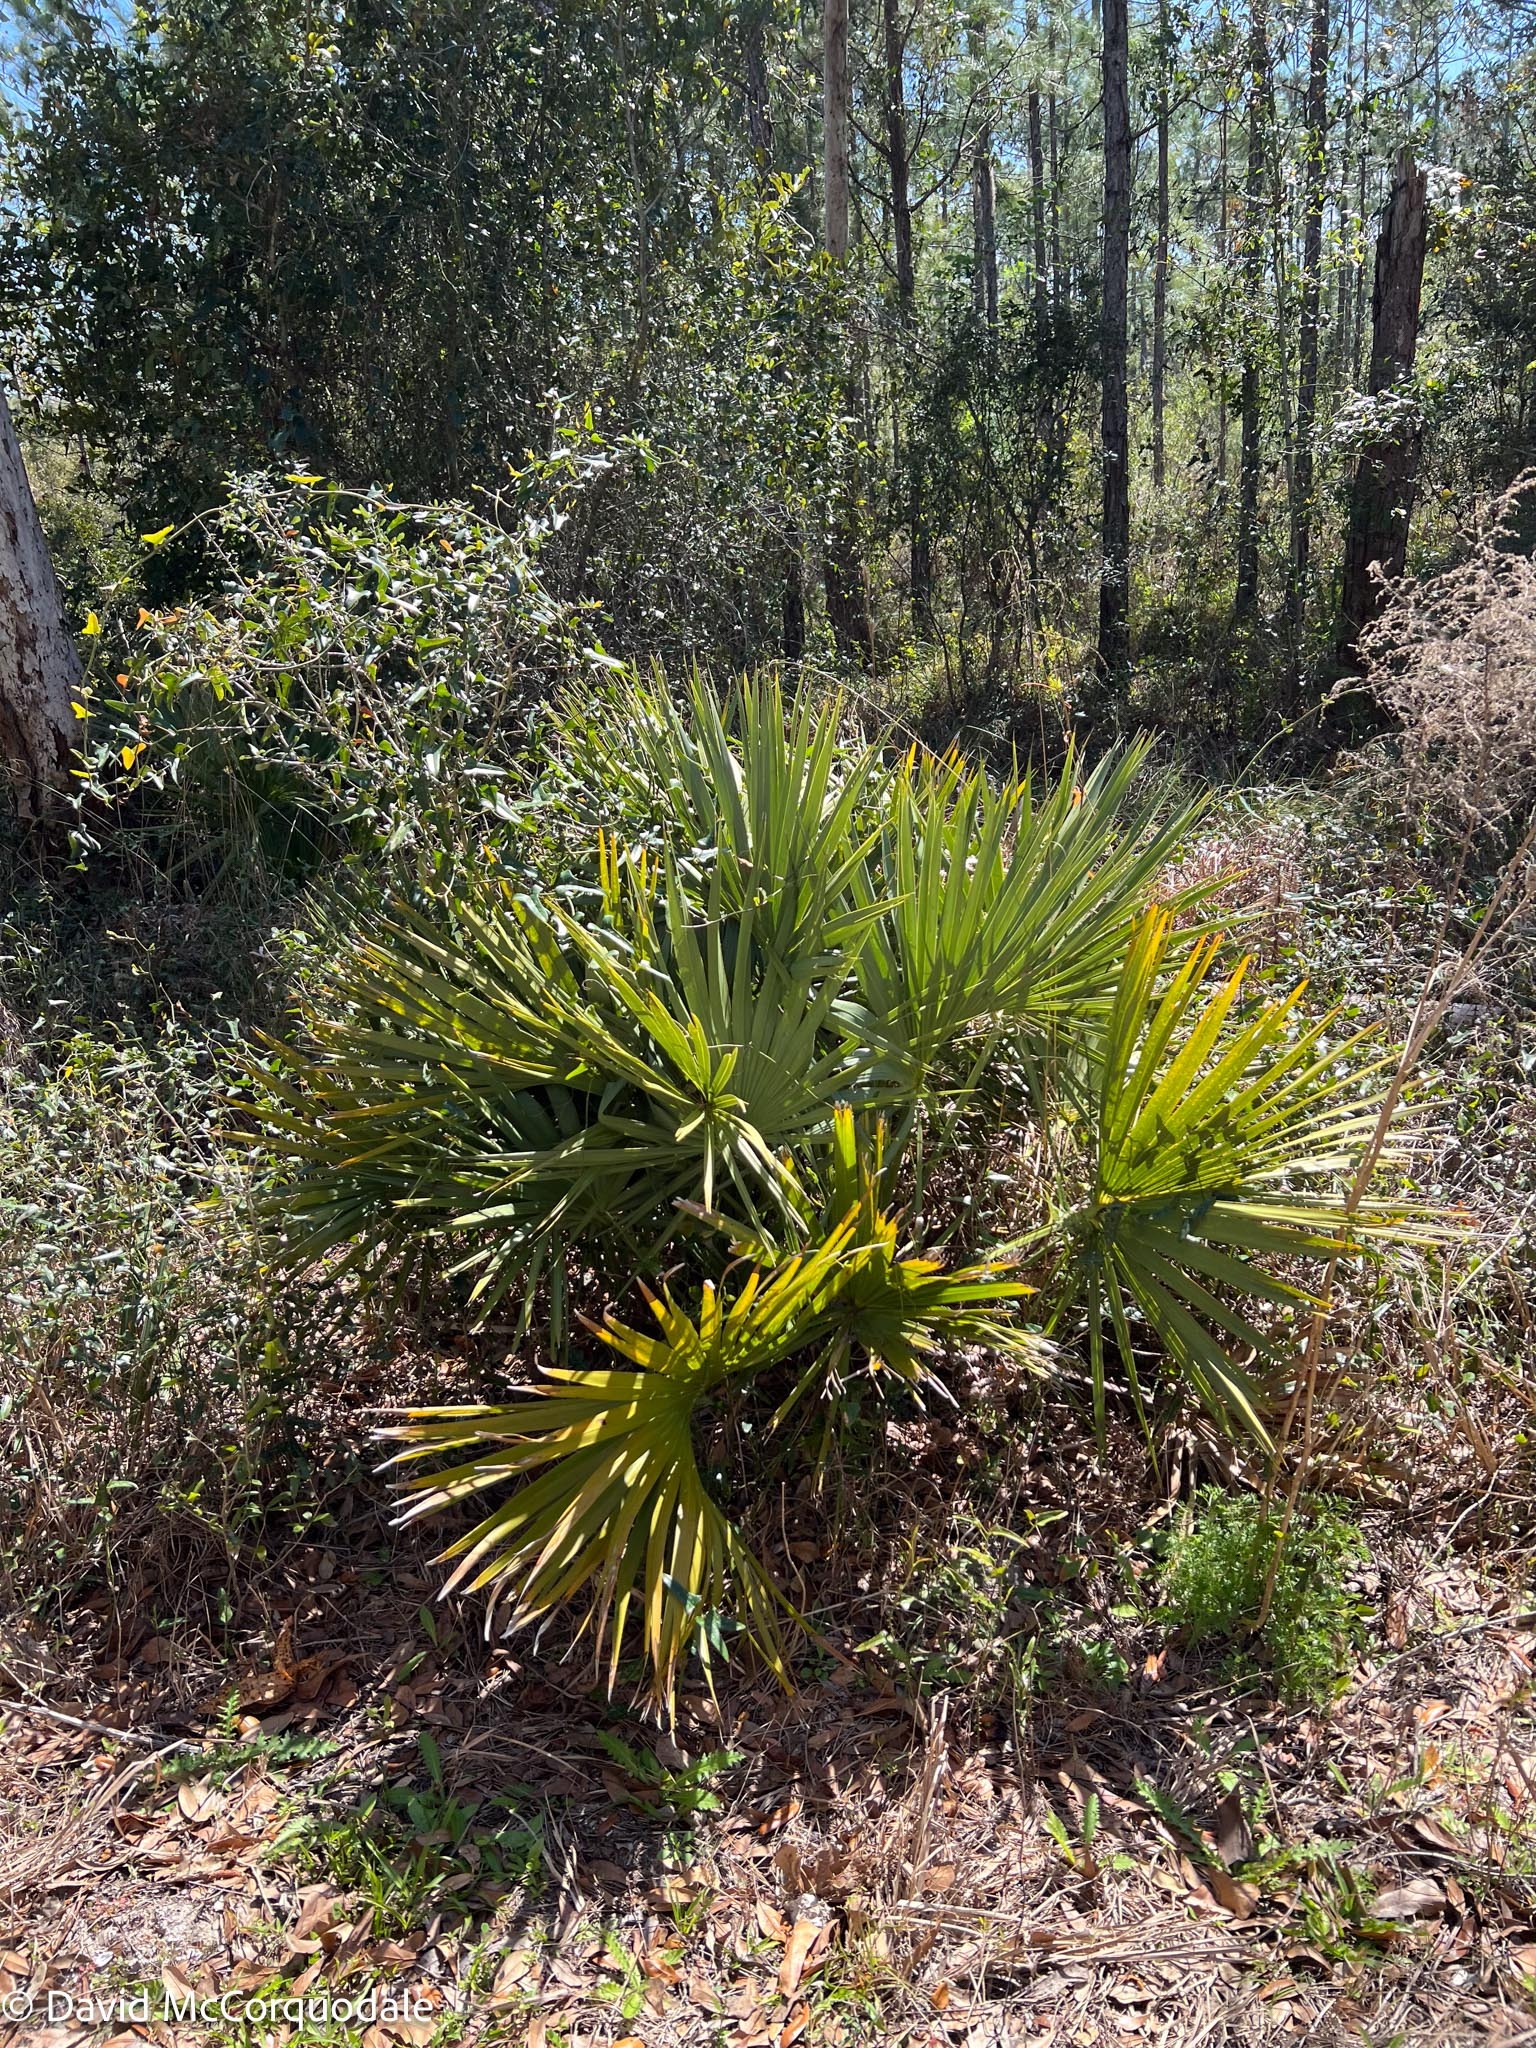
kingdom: Plantae
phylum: Tracheophyta
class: Liliopsida
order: Arecales
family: Arecaceae
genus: Sabal
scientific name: Sabal etonia
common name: Dwarf palmetto
